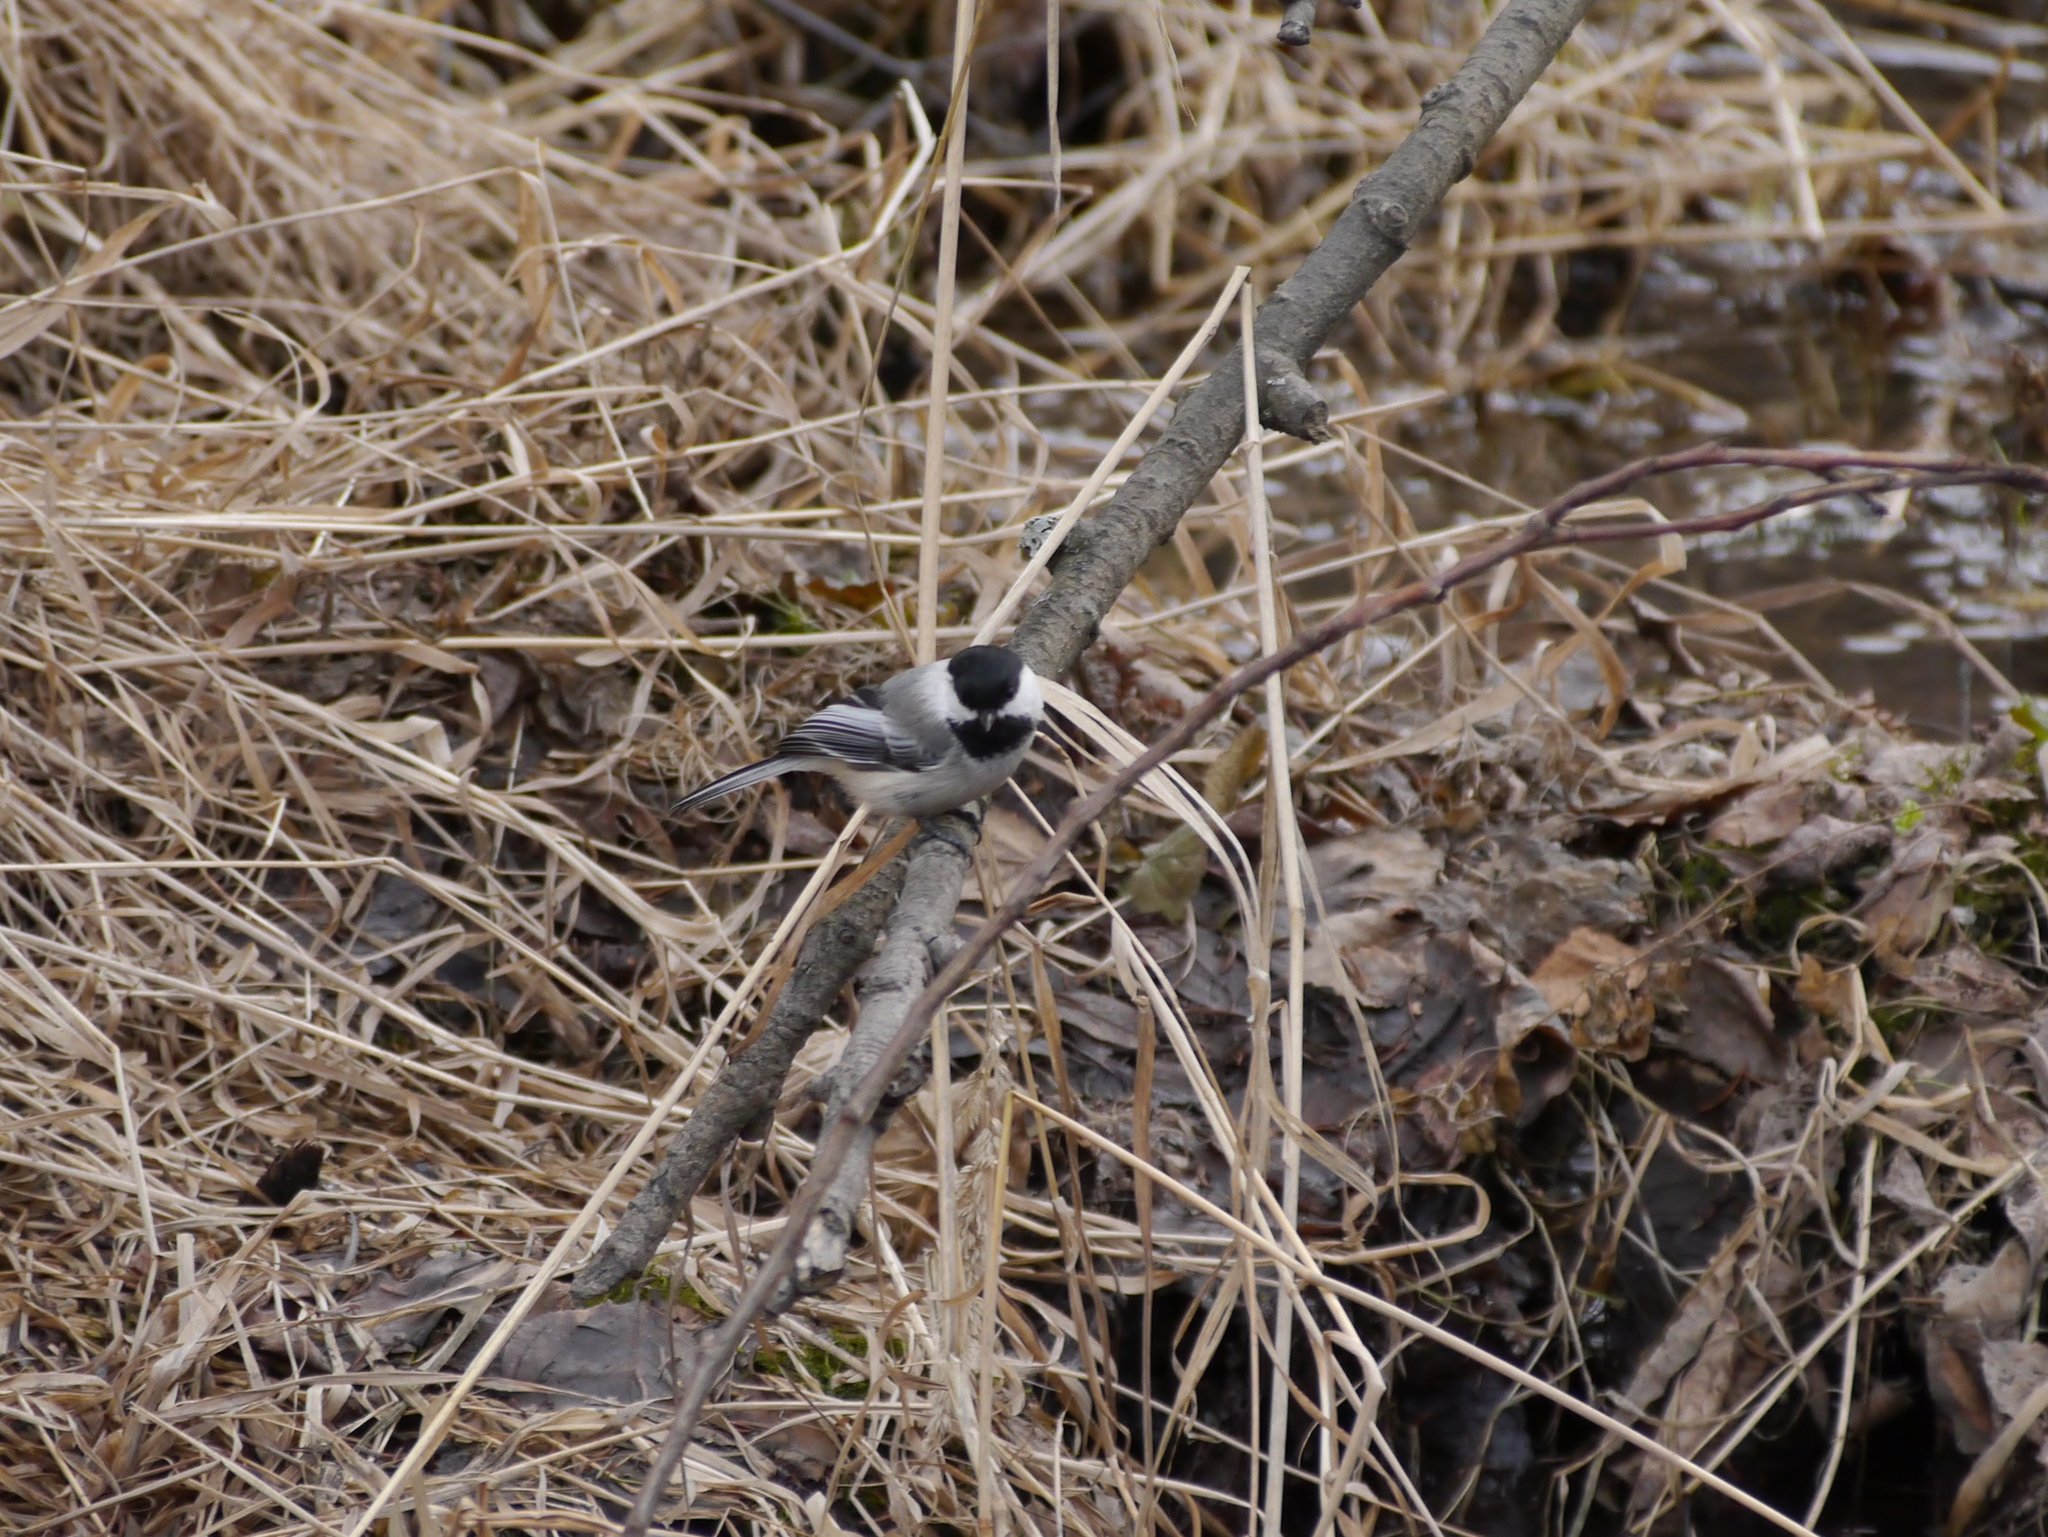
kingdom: Animalia
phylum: Chordata
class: Aves
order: Passeriformes
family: Paridae
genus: Poecile
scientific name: Poecile atricapillus
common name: Black-capped chickadee
